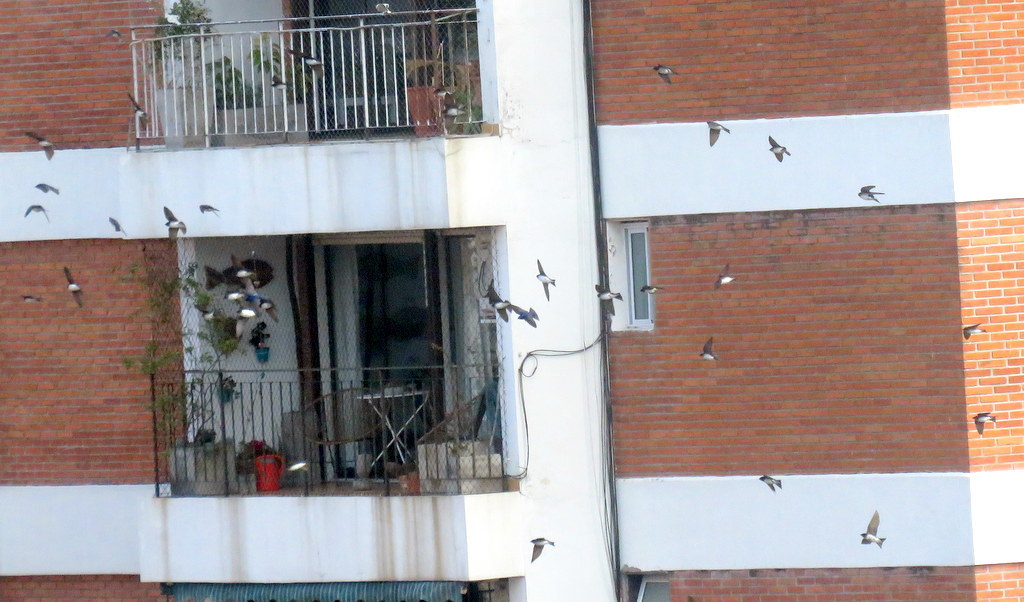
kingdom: Animalia
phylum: Chordata
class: Aves
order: Passeriformes
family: Hirundinidae
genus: Progne
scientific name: Progne chalybea
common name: Grey-breasted martin
